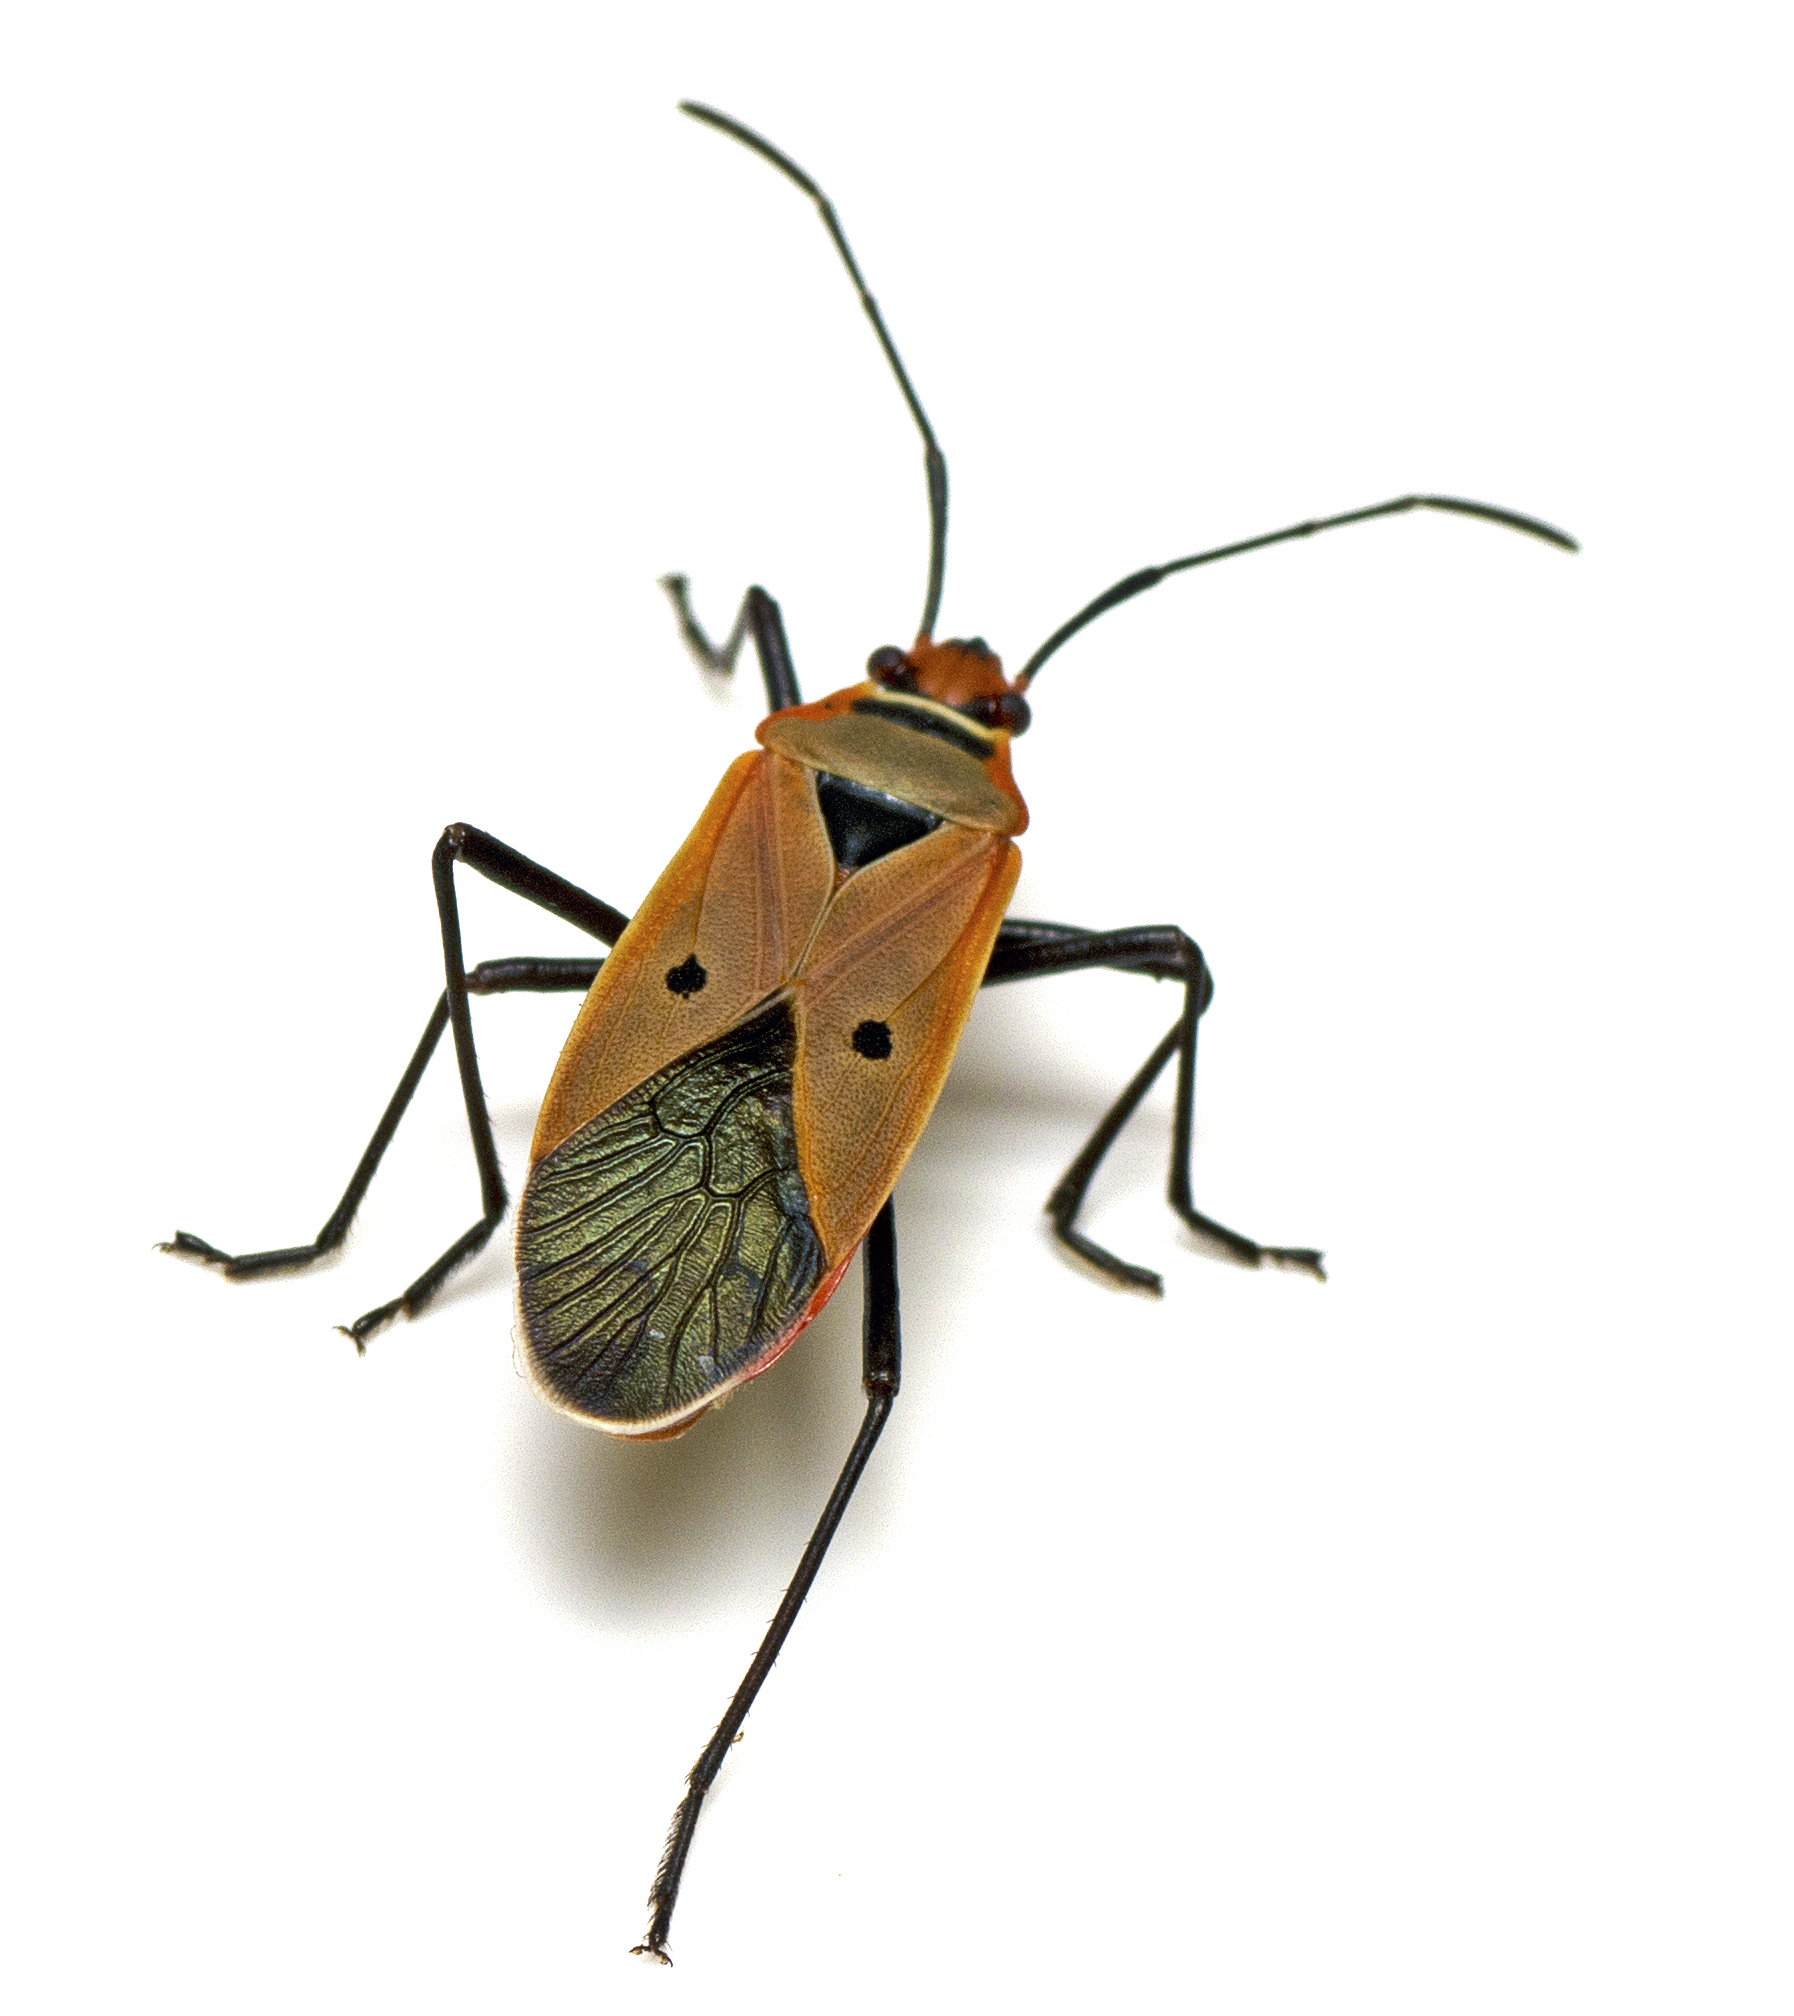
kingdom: Animalia
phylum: Arthropoda
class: Insecta
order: Hemiptera
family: Pyrrhocoridae
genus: Dysdercus
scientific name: Dysdercus sidae
